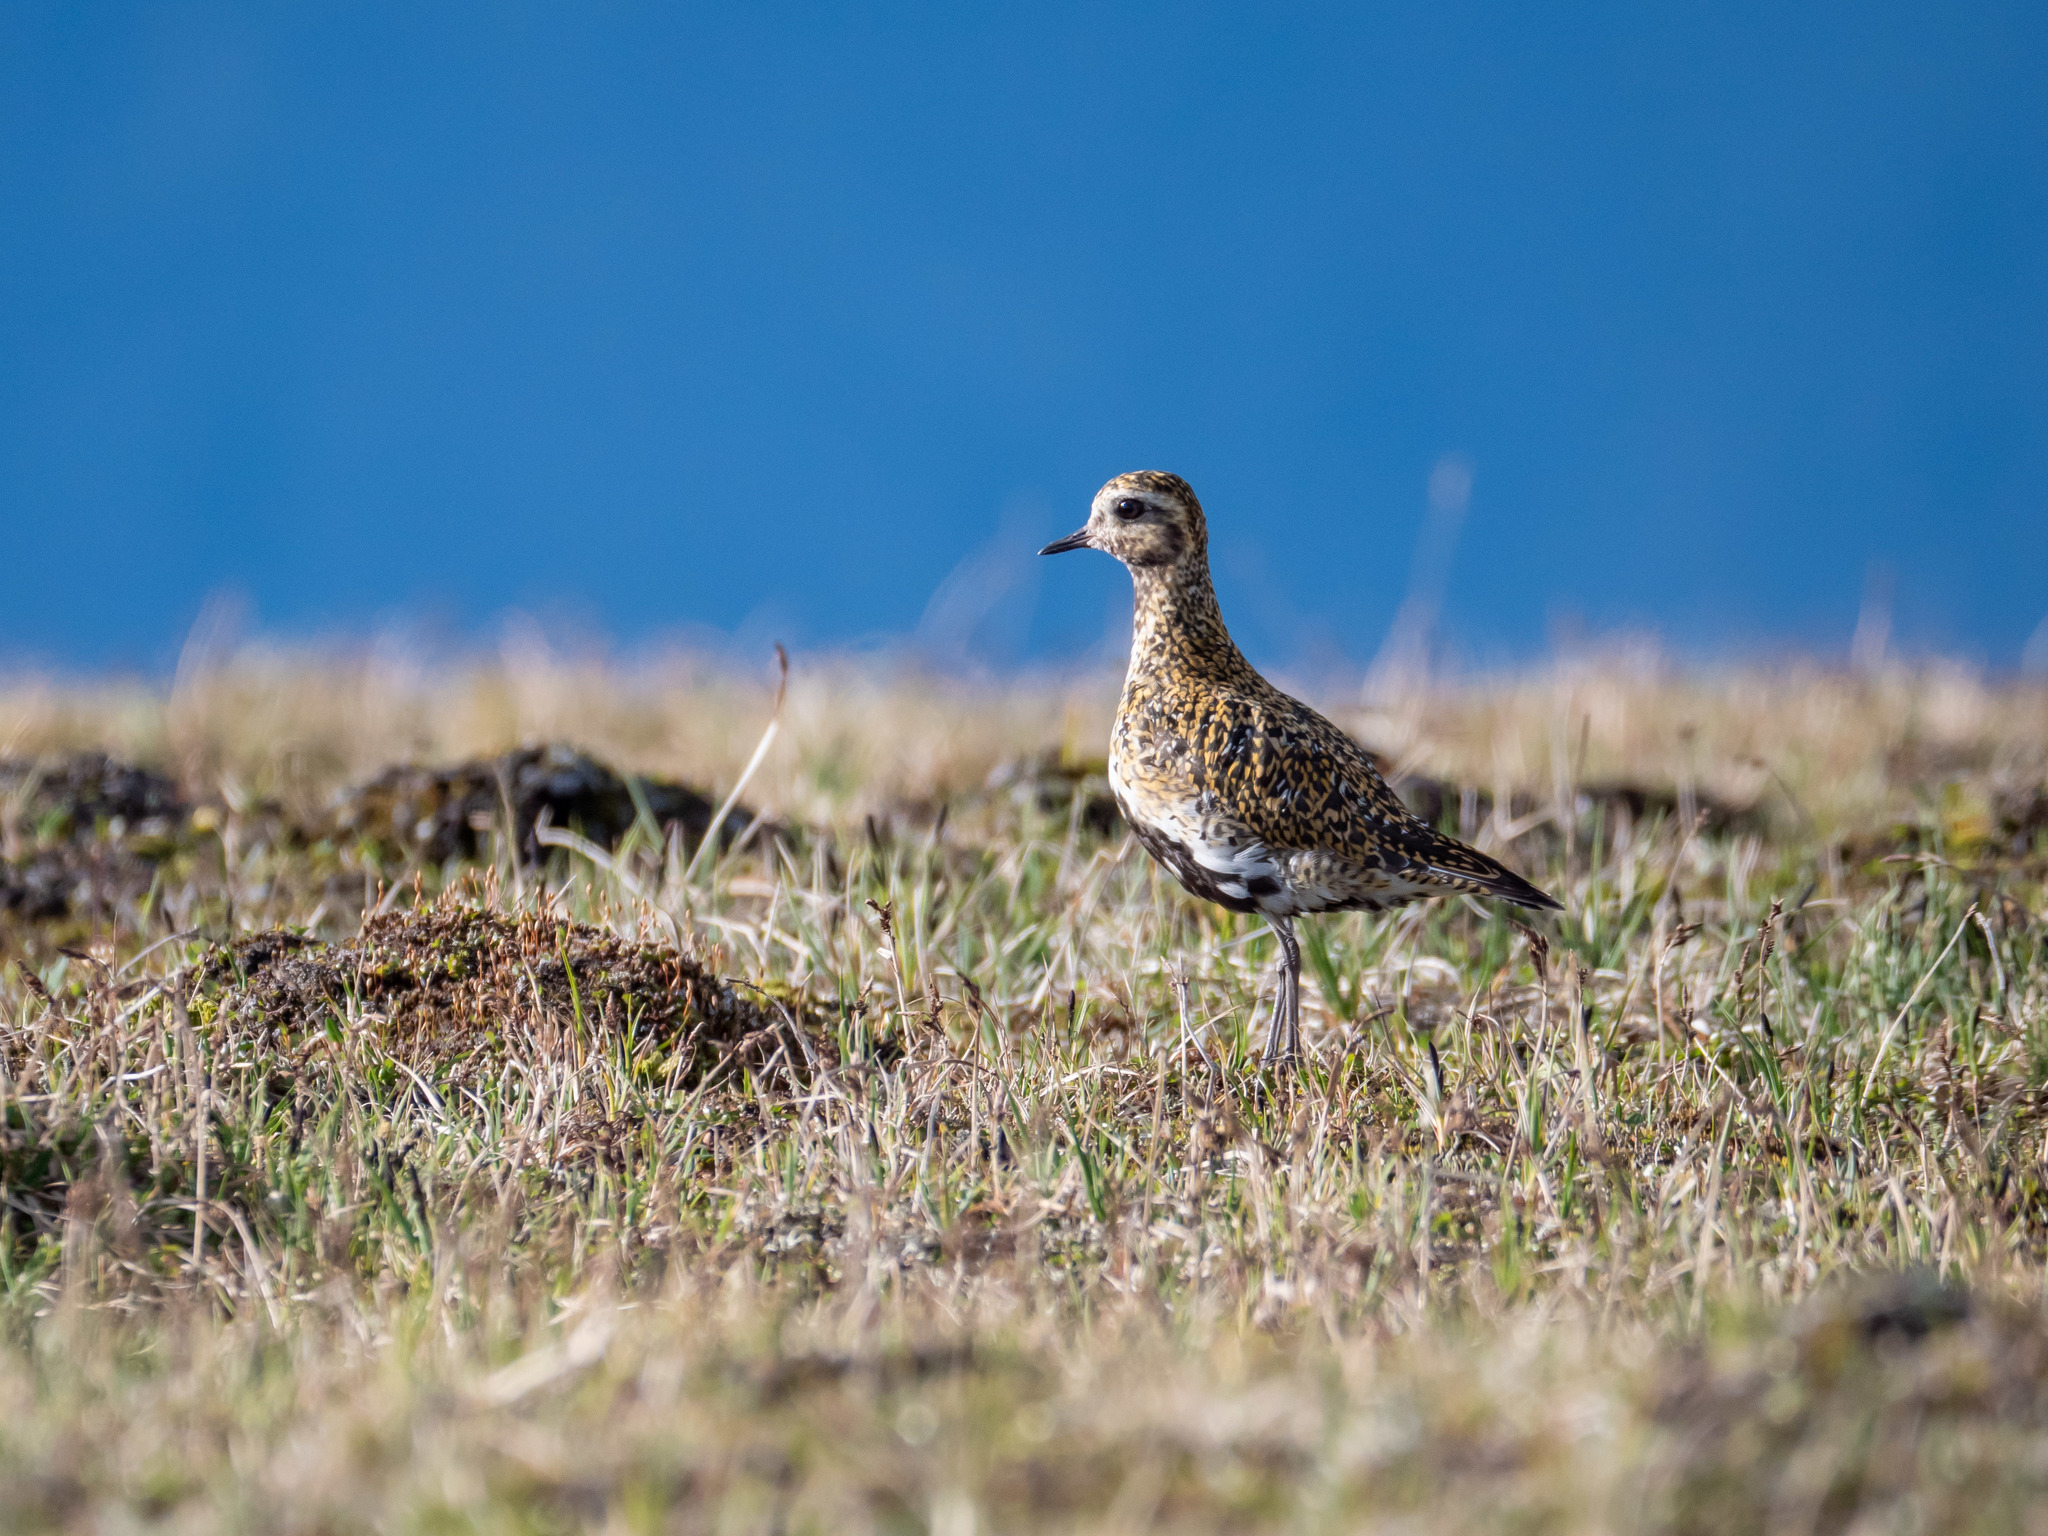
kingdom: Animalia
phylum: Chordata
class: Aves
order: Charadriiformes
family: Charadriidae
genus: Pluvialis
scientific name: Pluvialis apricaria
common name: European golden plover
